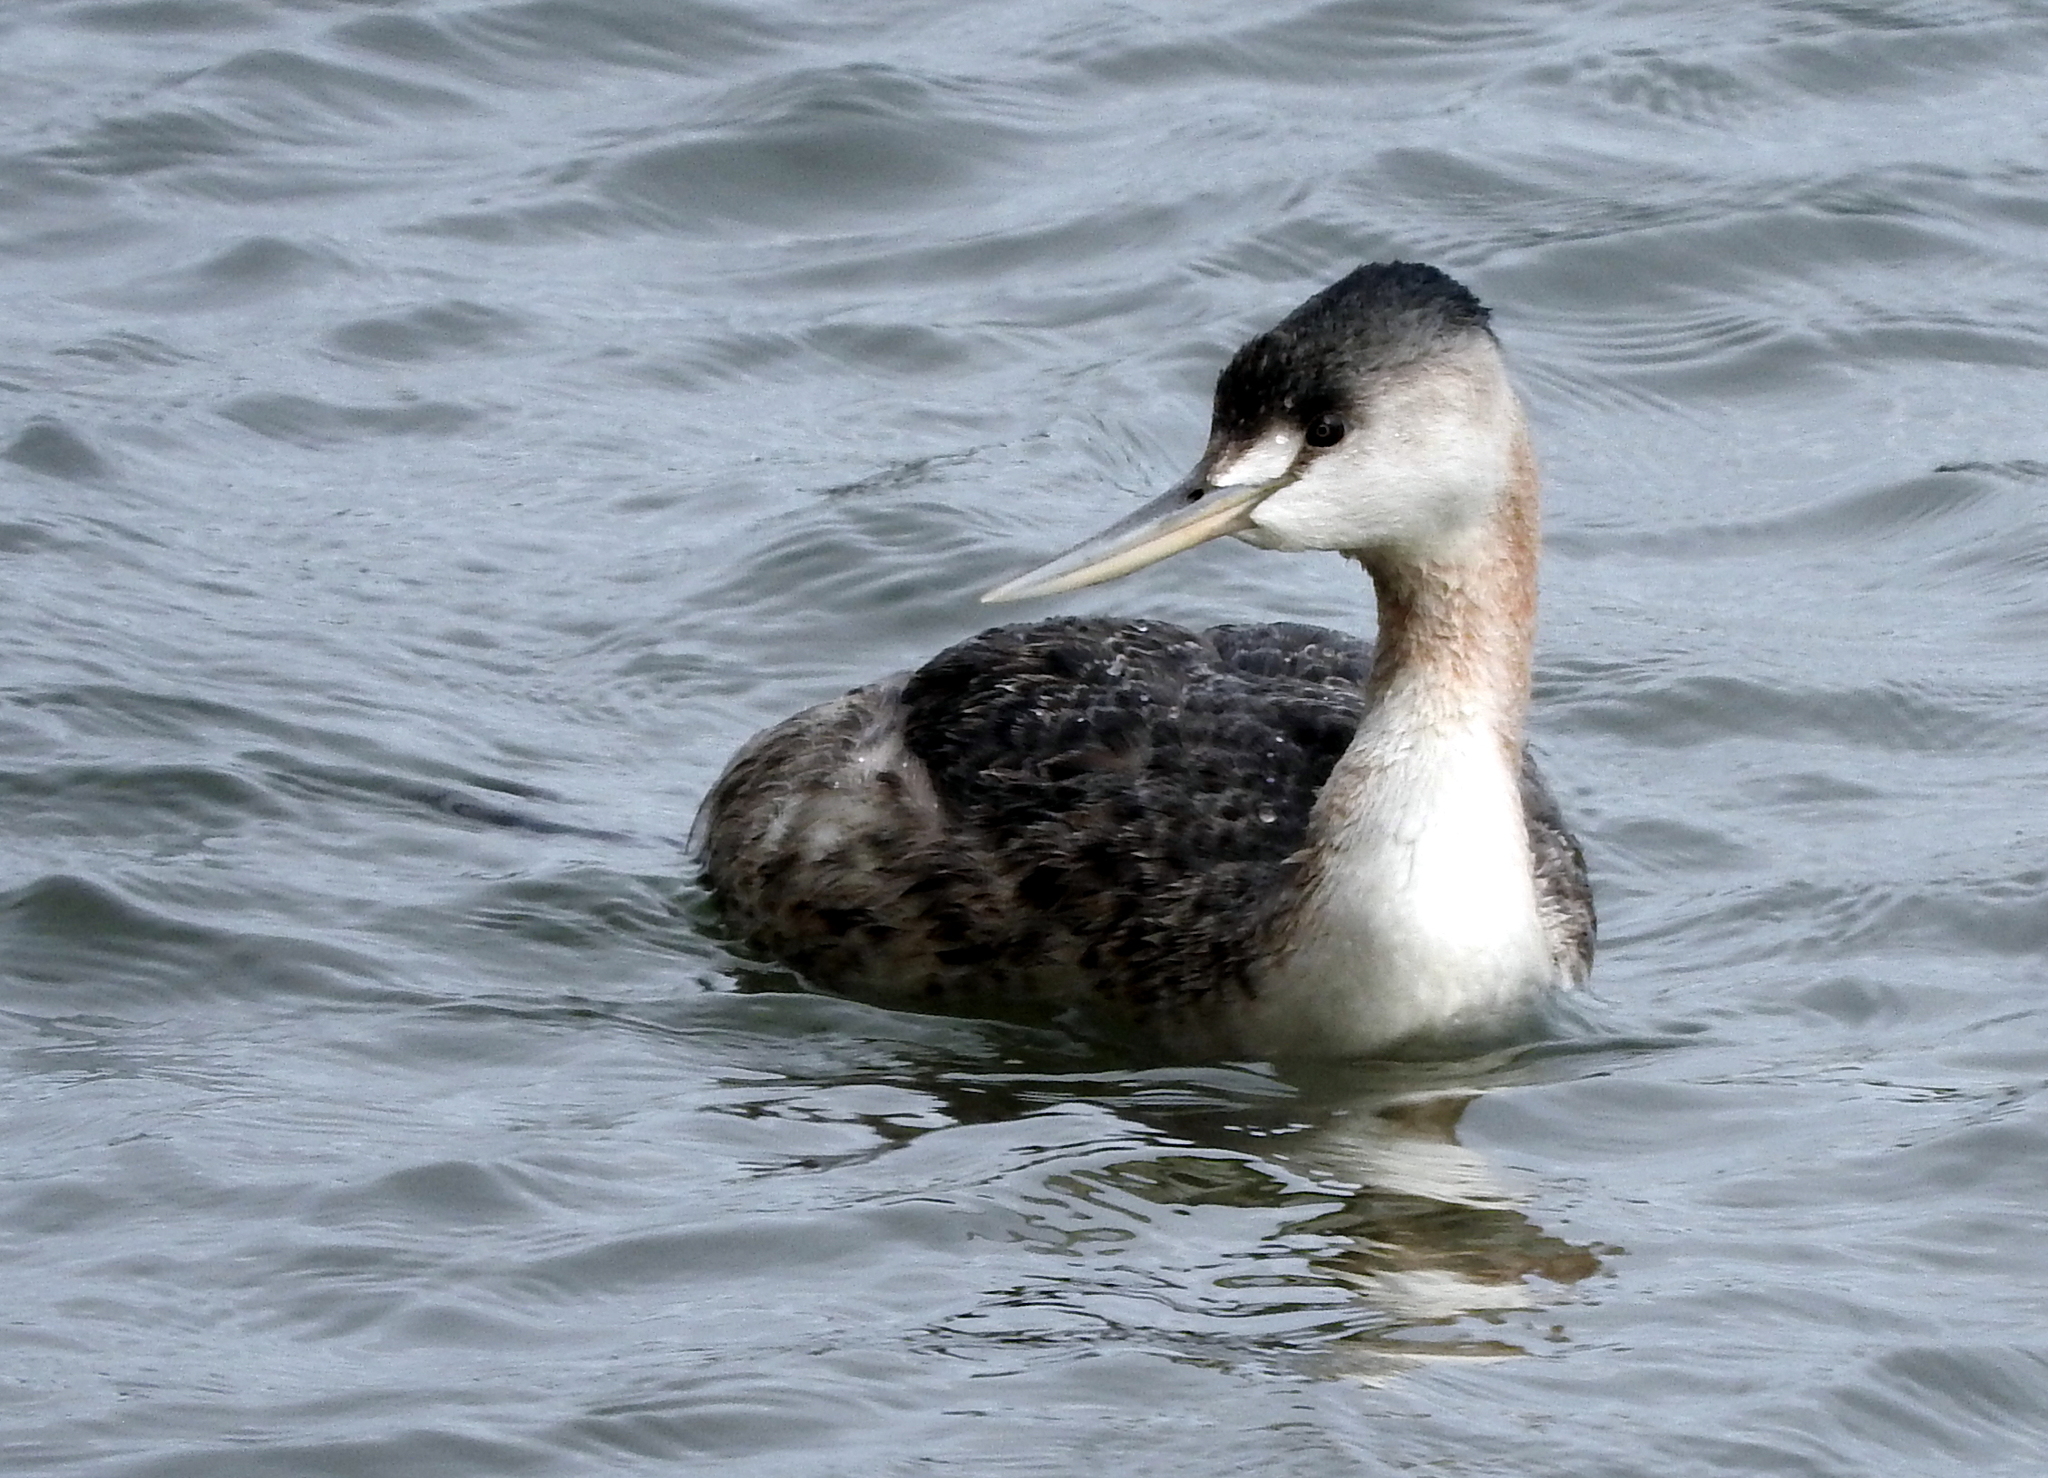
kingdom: Animalia
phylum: Chordata
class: Aves
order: Podicipediformes
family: Podicipedidae
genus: Podiceps
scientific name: Podiceps major
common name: Great grebe
